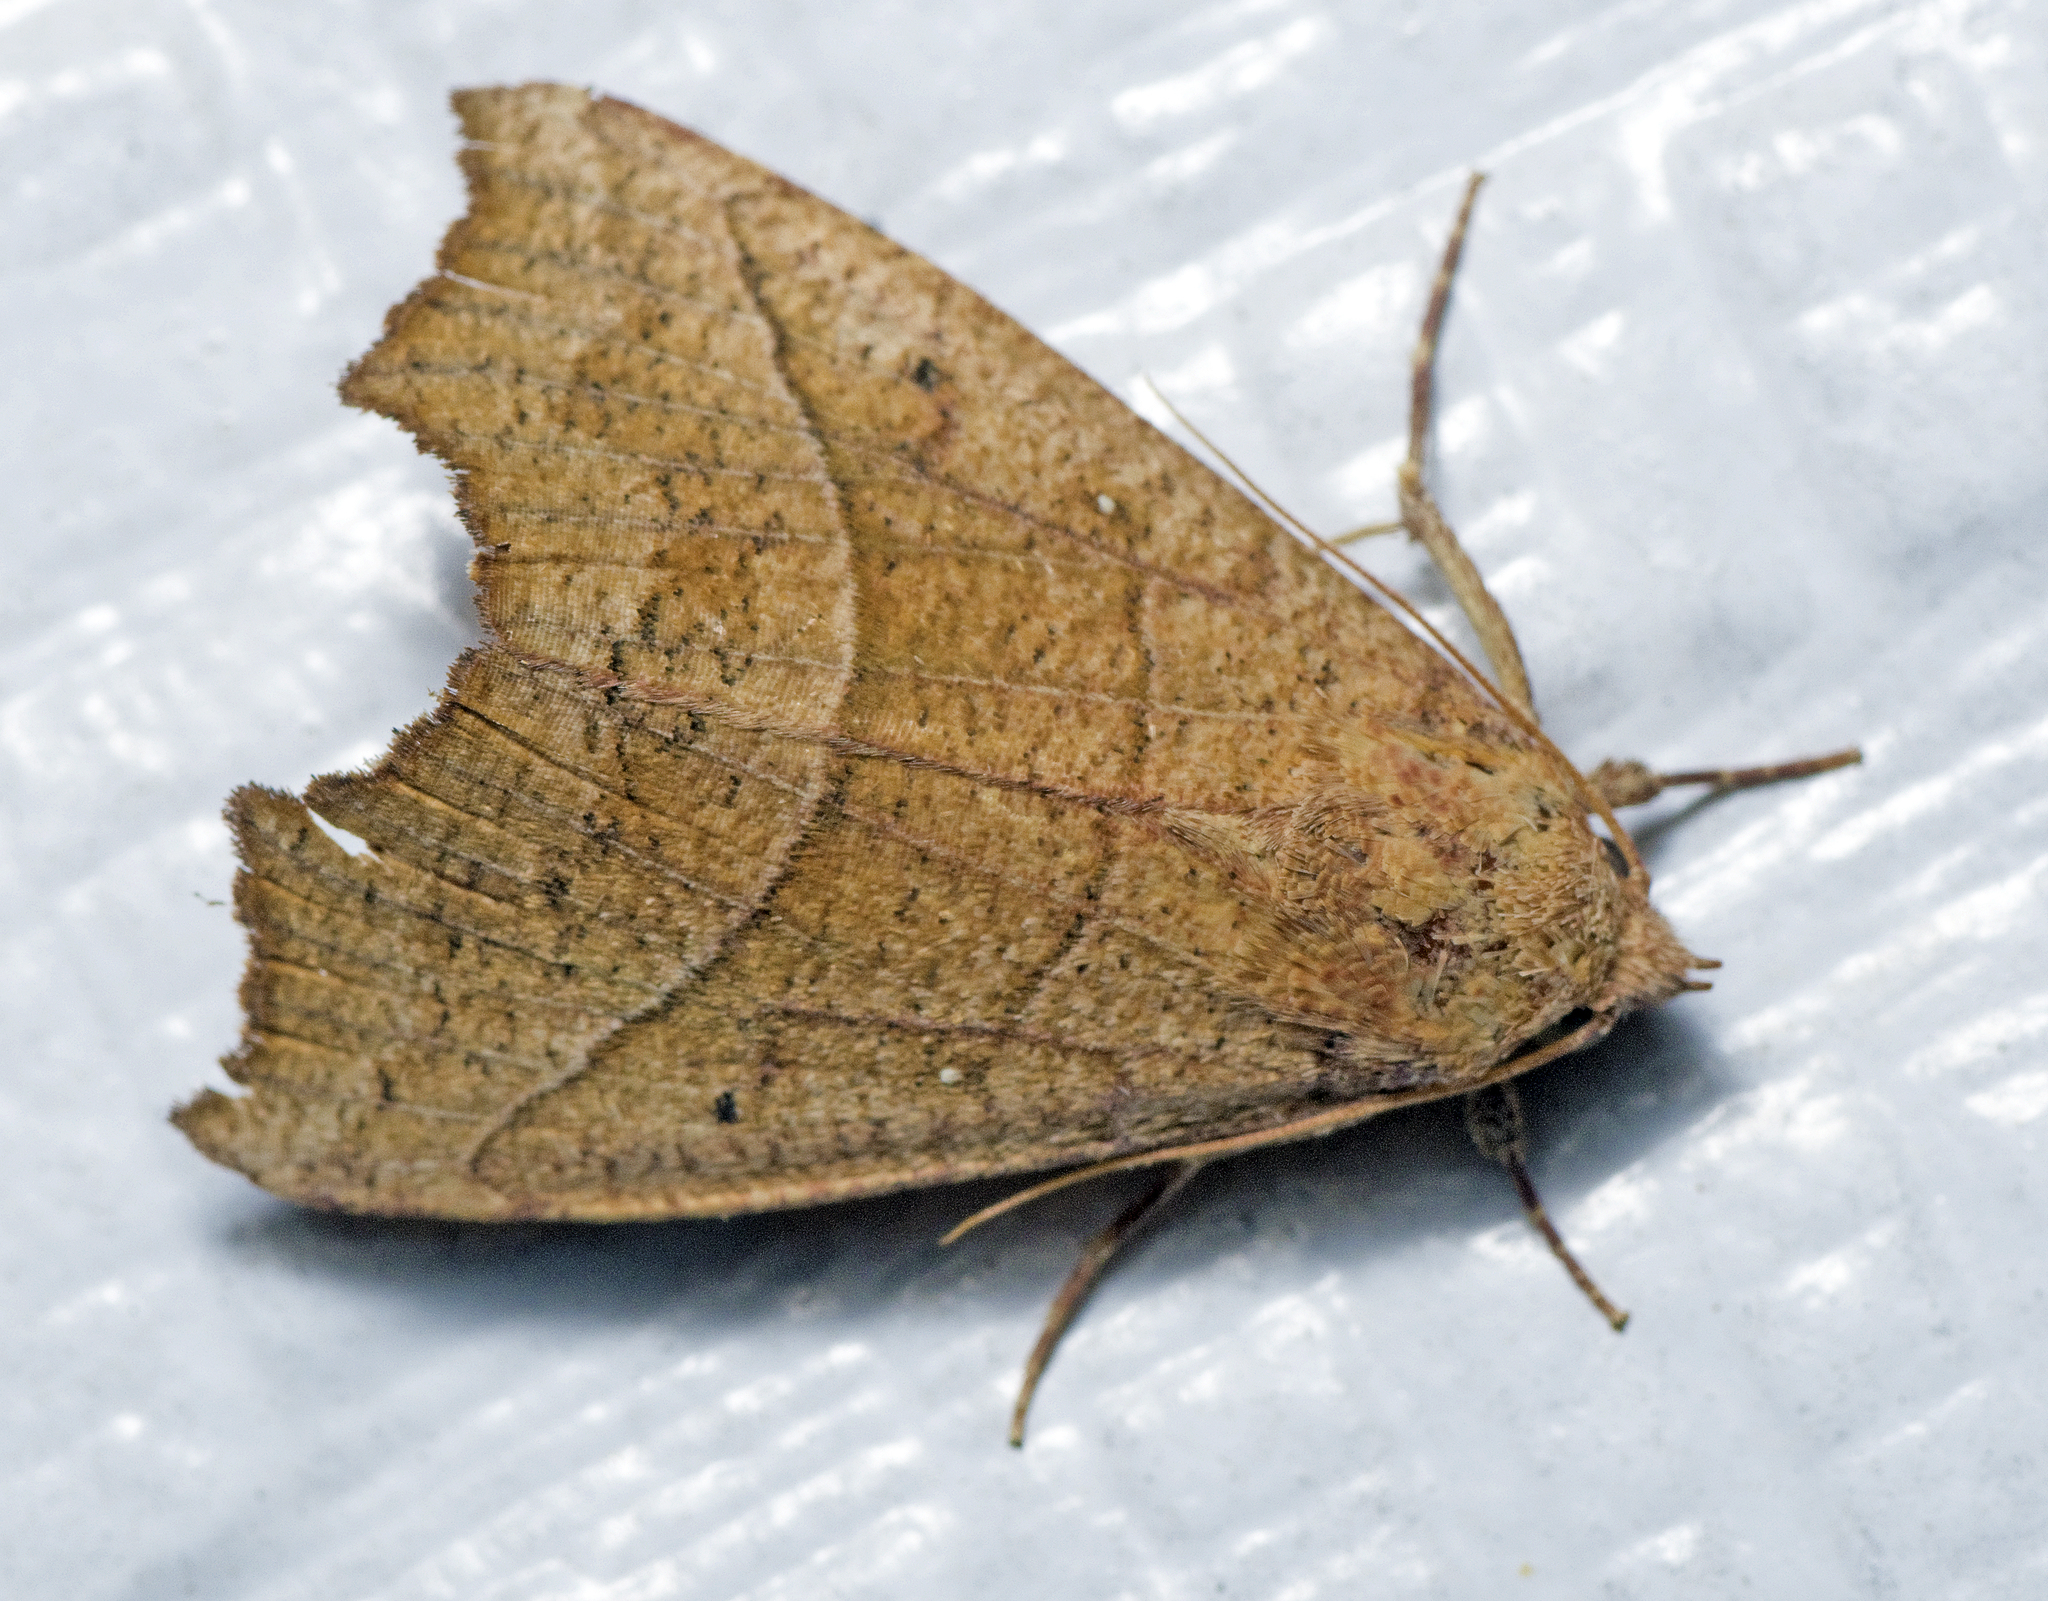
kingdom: Animalia
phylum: Arthropoda
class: Insecta
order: Lepidoptera
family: Erebidae
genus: Anomis
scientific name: Anomis psamathodes
